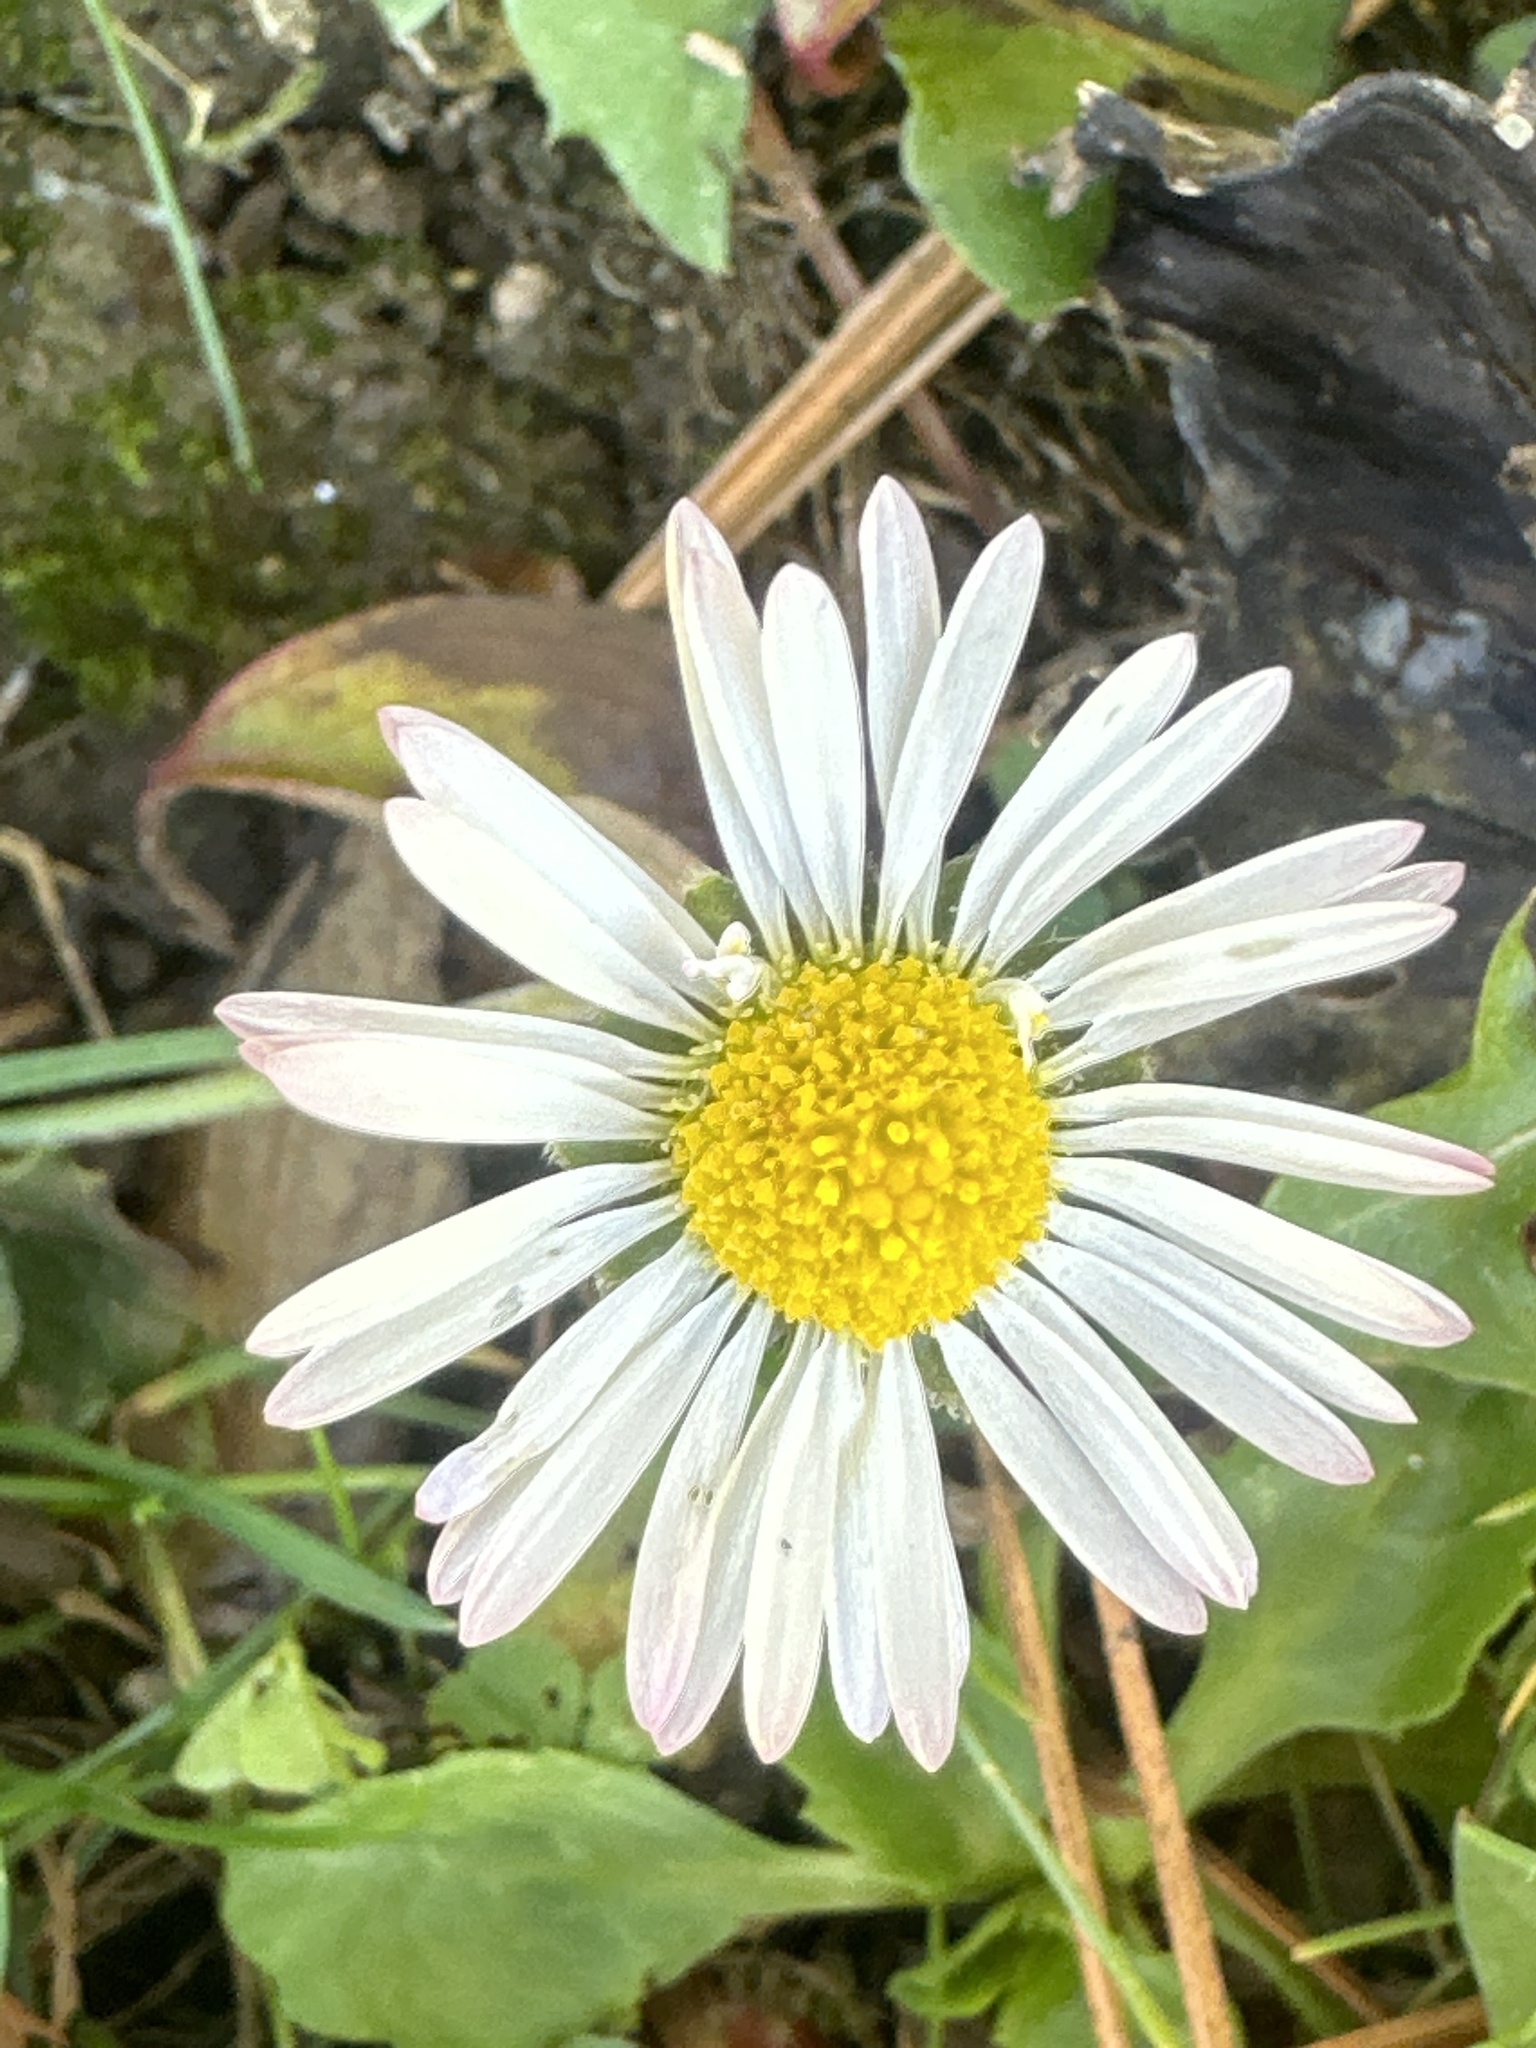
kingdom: Plantae
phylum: Tracheophyta
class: Magnoliopsida
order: Asterales
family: Asteraceae
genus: Bellis
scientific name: Bellis perennis
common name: Lawndaisy
